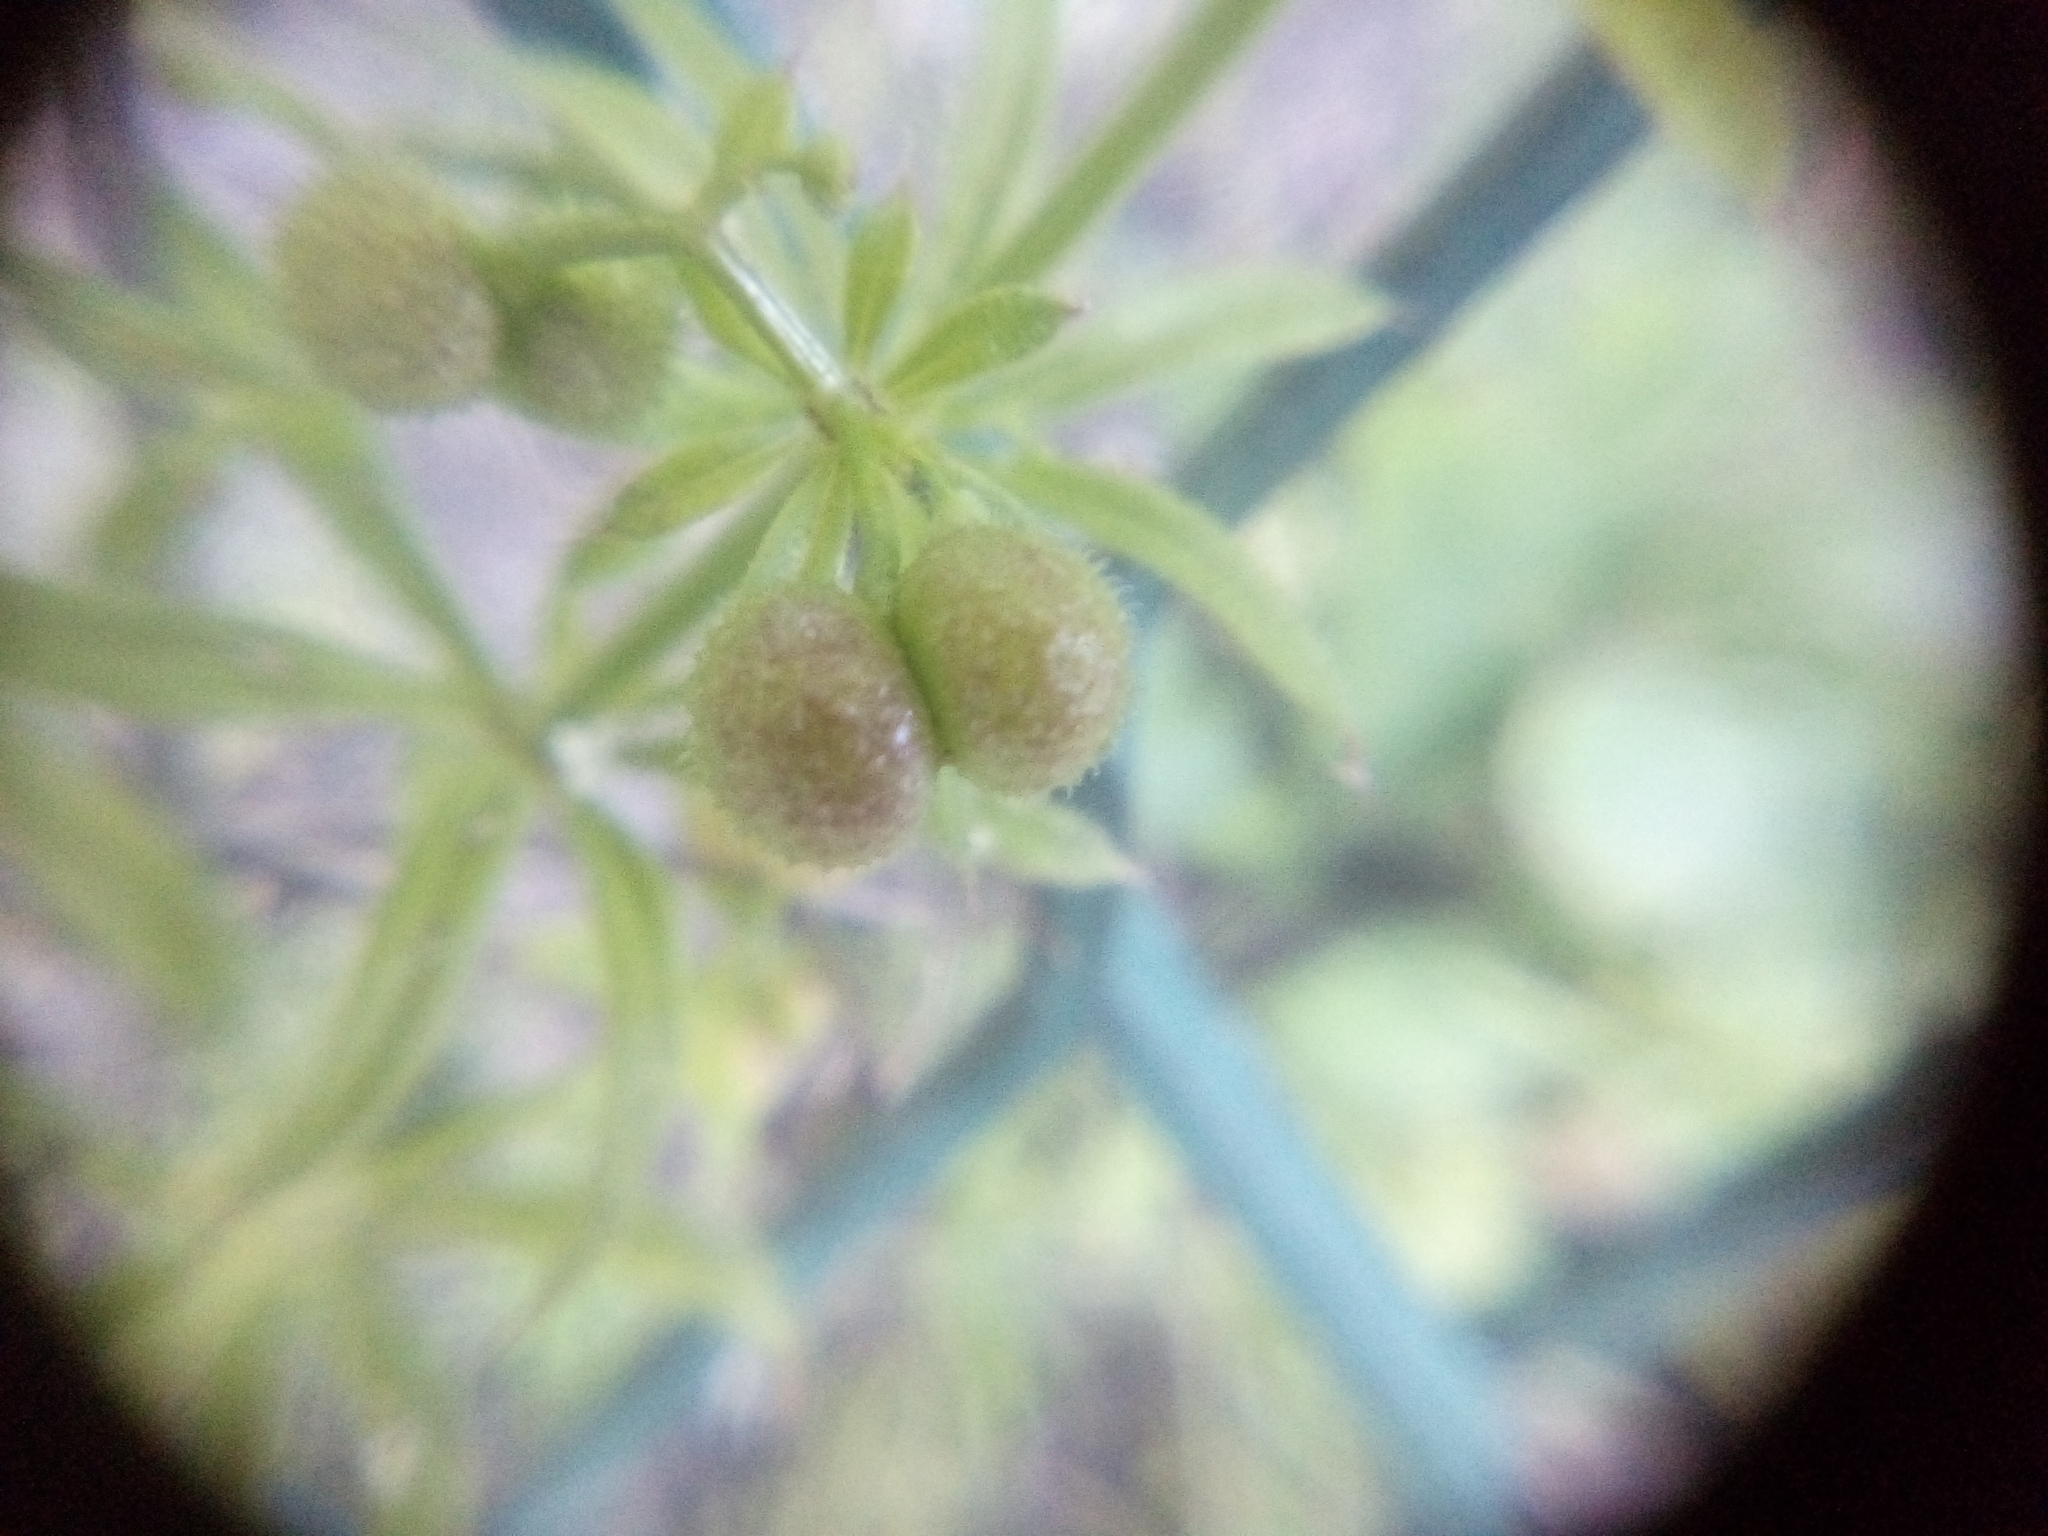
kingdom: Plantae
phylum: Tracheophyta
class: Magnoliopsida
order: Gentianales
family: Rubiaceae
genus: Galium
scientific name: Galium aparine
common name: Cleavers
